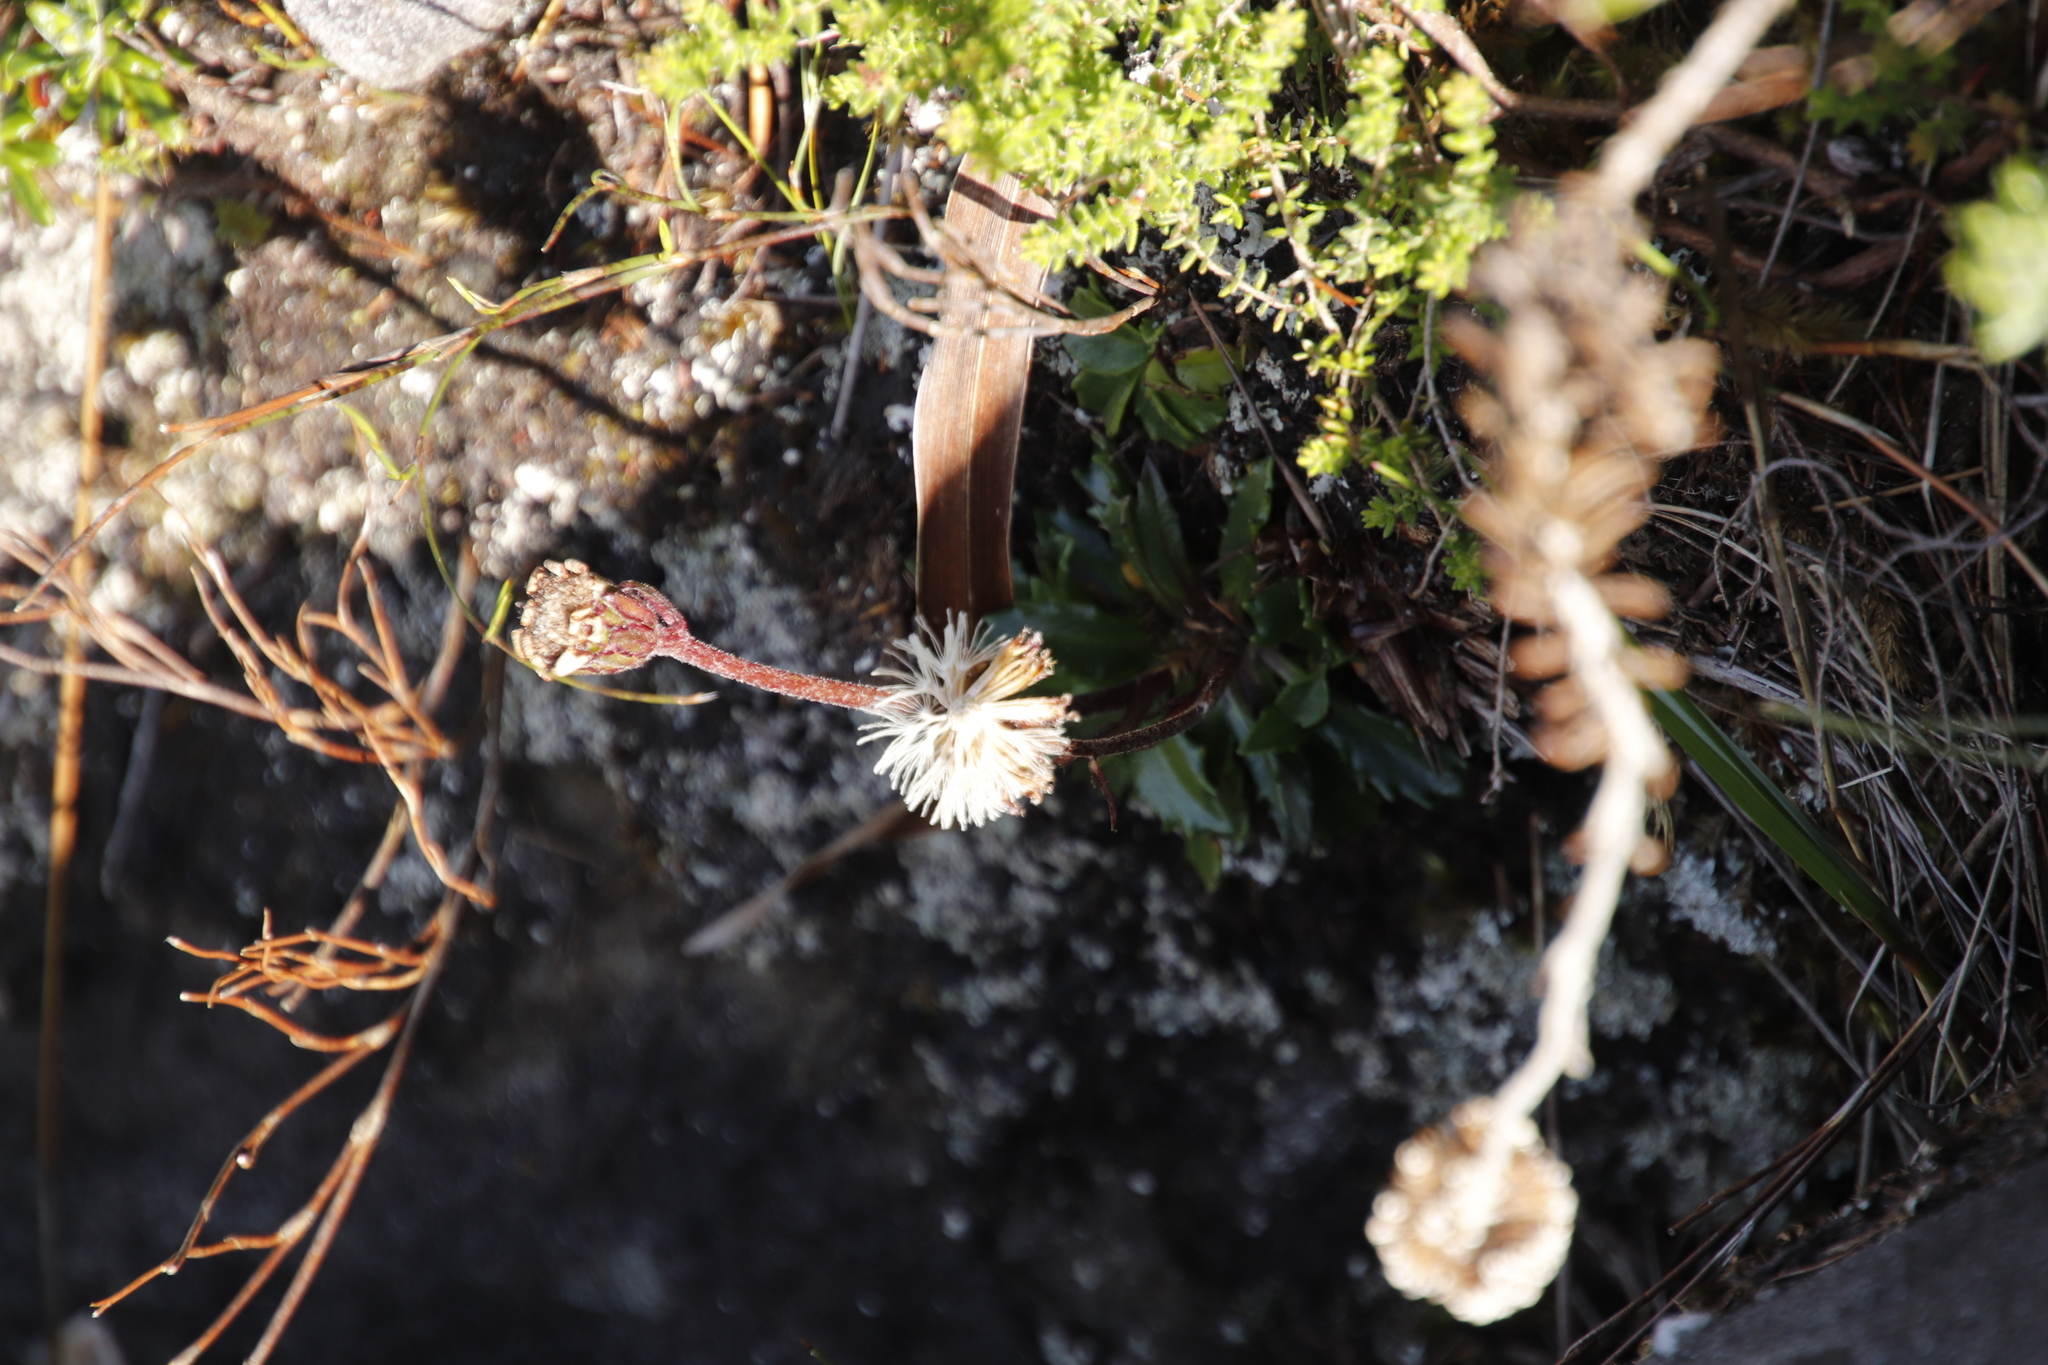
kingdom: Plantae
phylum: Tracheophyta
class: Magnoliopsida
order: Asterales
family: Asteraceae
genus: Zyrphelis
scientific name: Zyrphelis crenata
